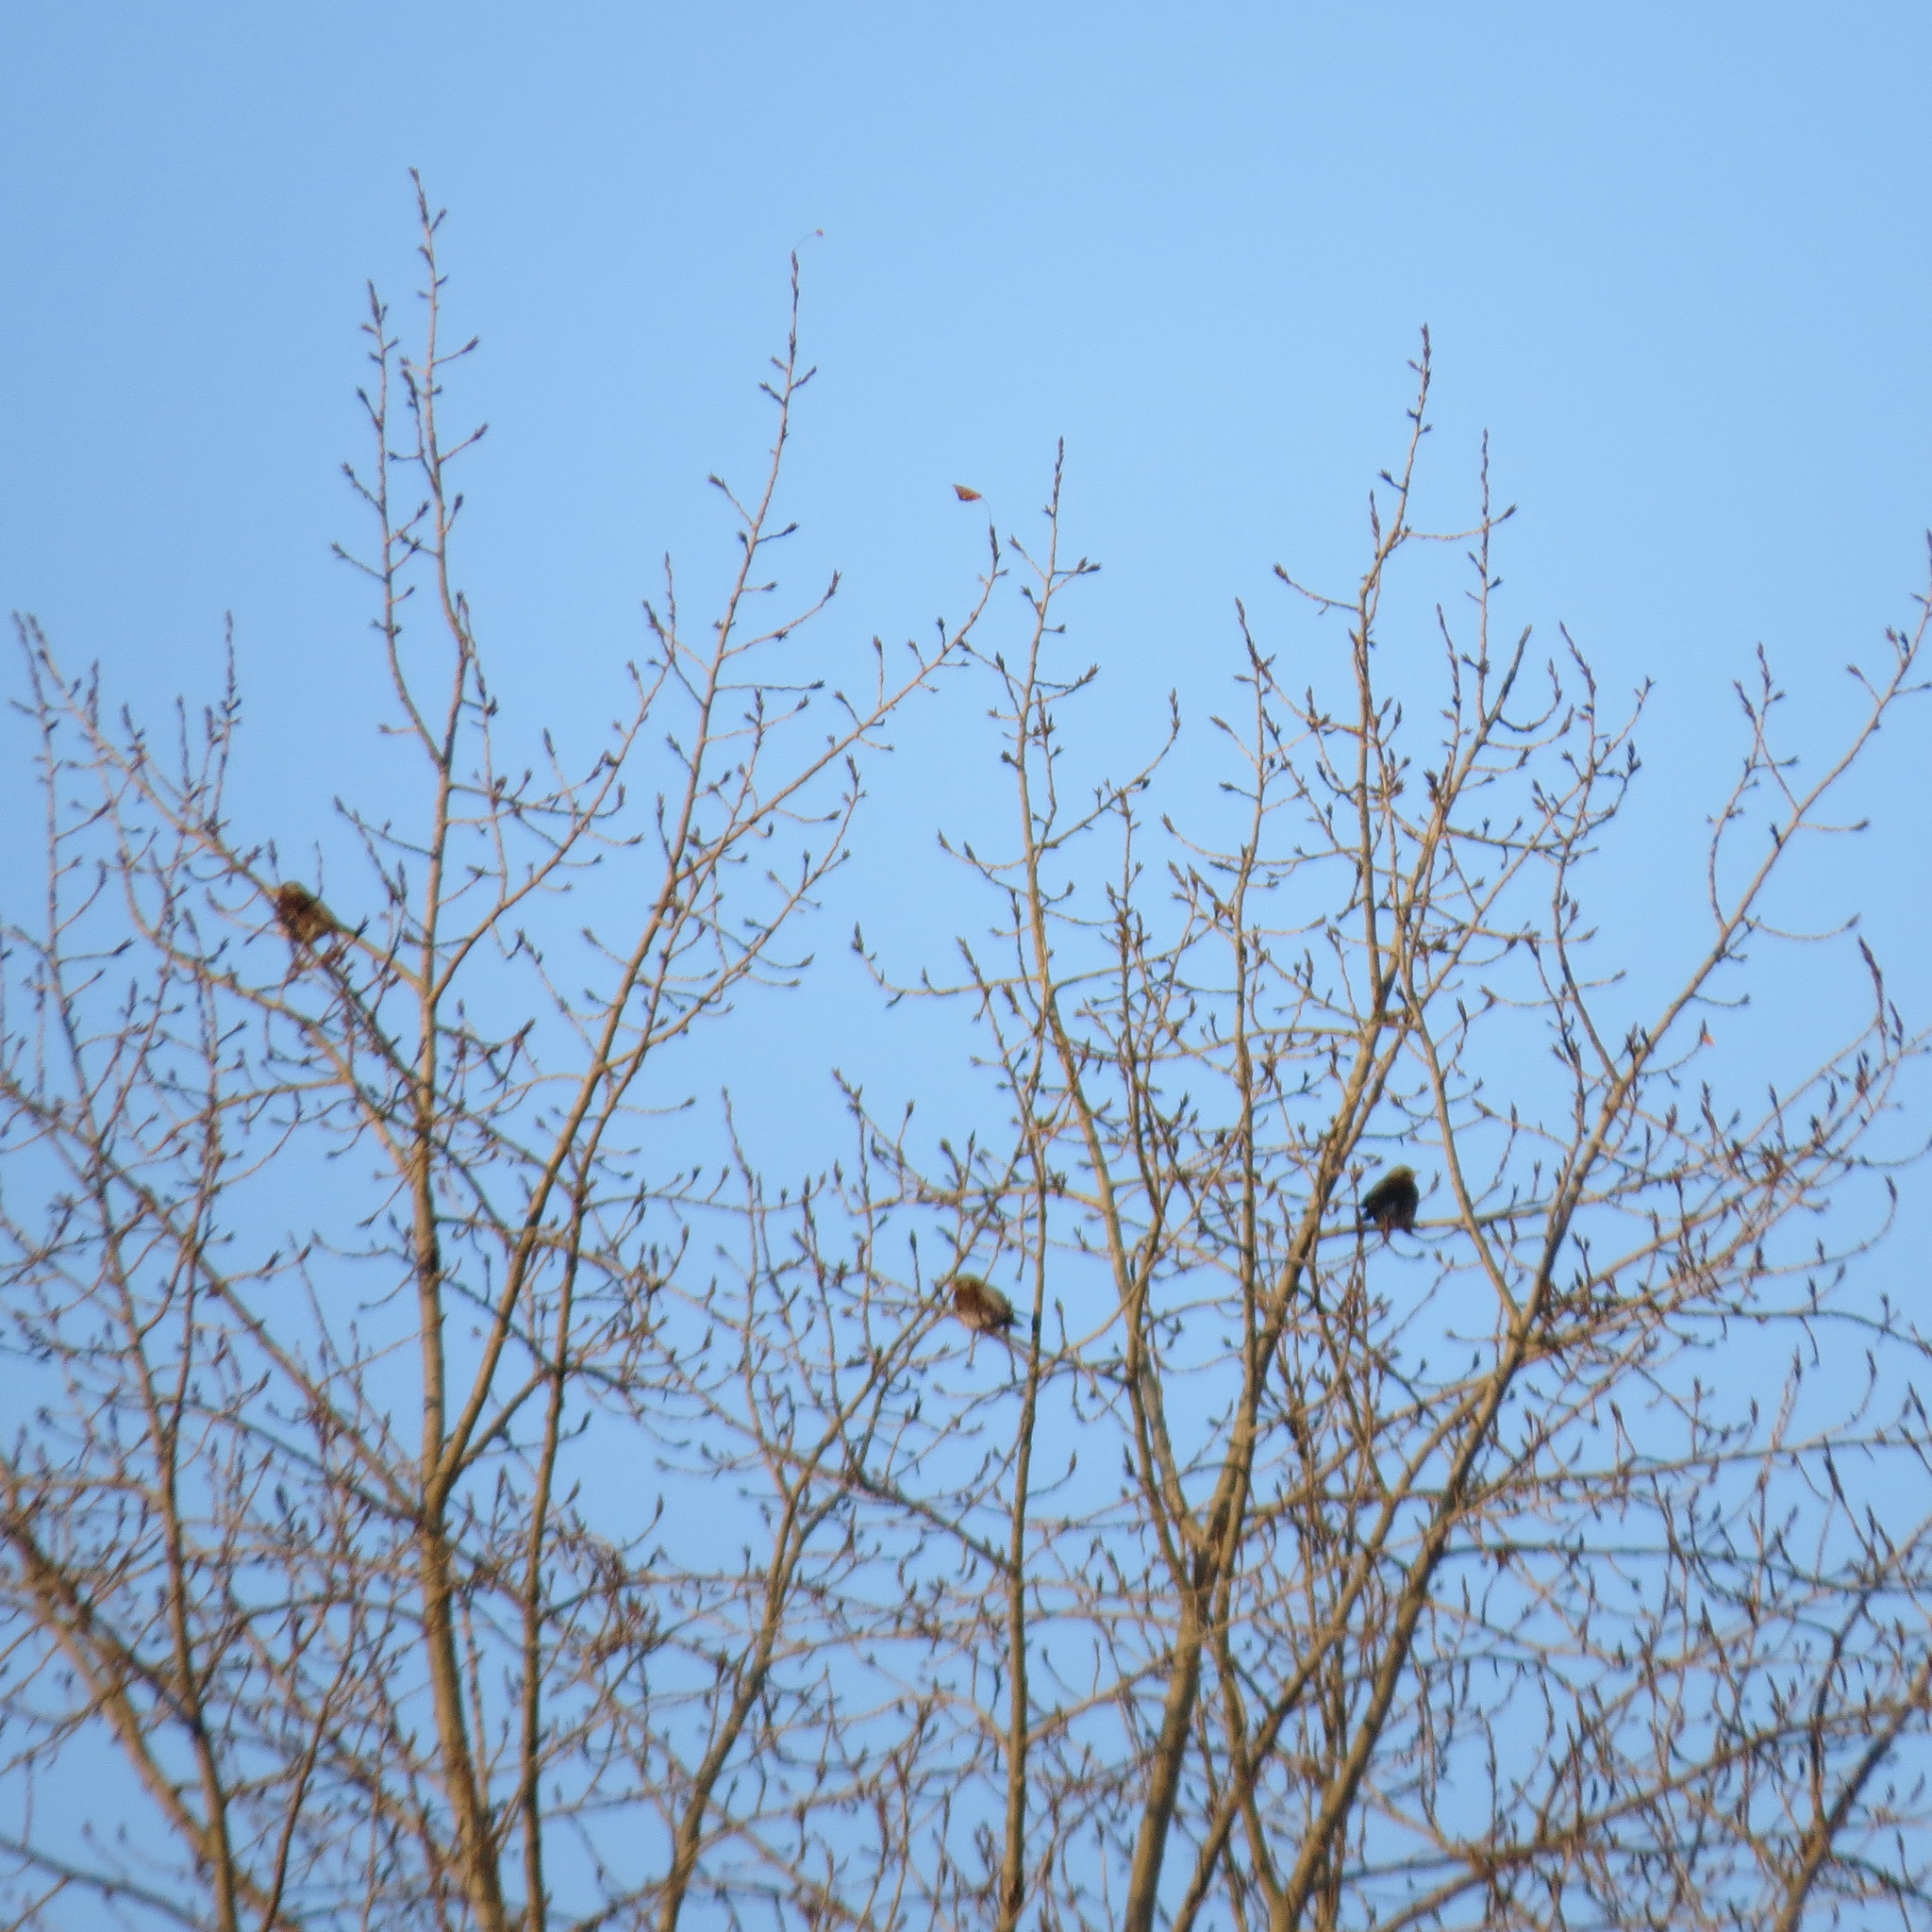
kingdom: Animalia
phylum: Chordata
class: Aves
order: Passeriformes
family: Turdidae
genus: Turdus
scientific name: Turdus pilaris
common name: Fieldfare
